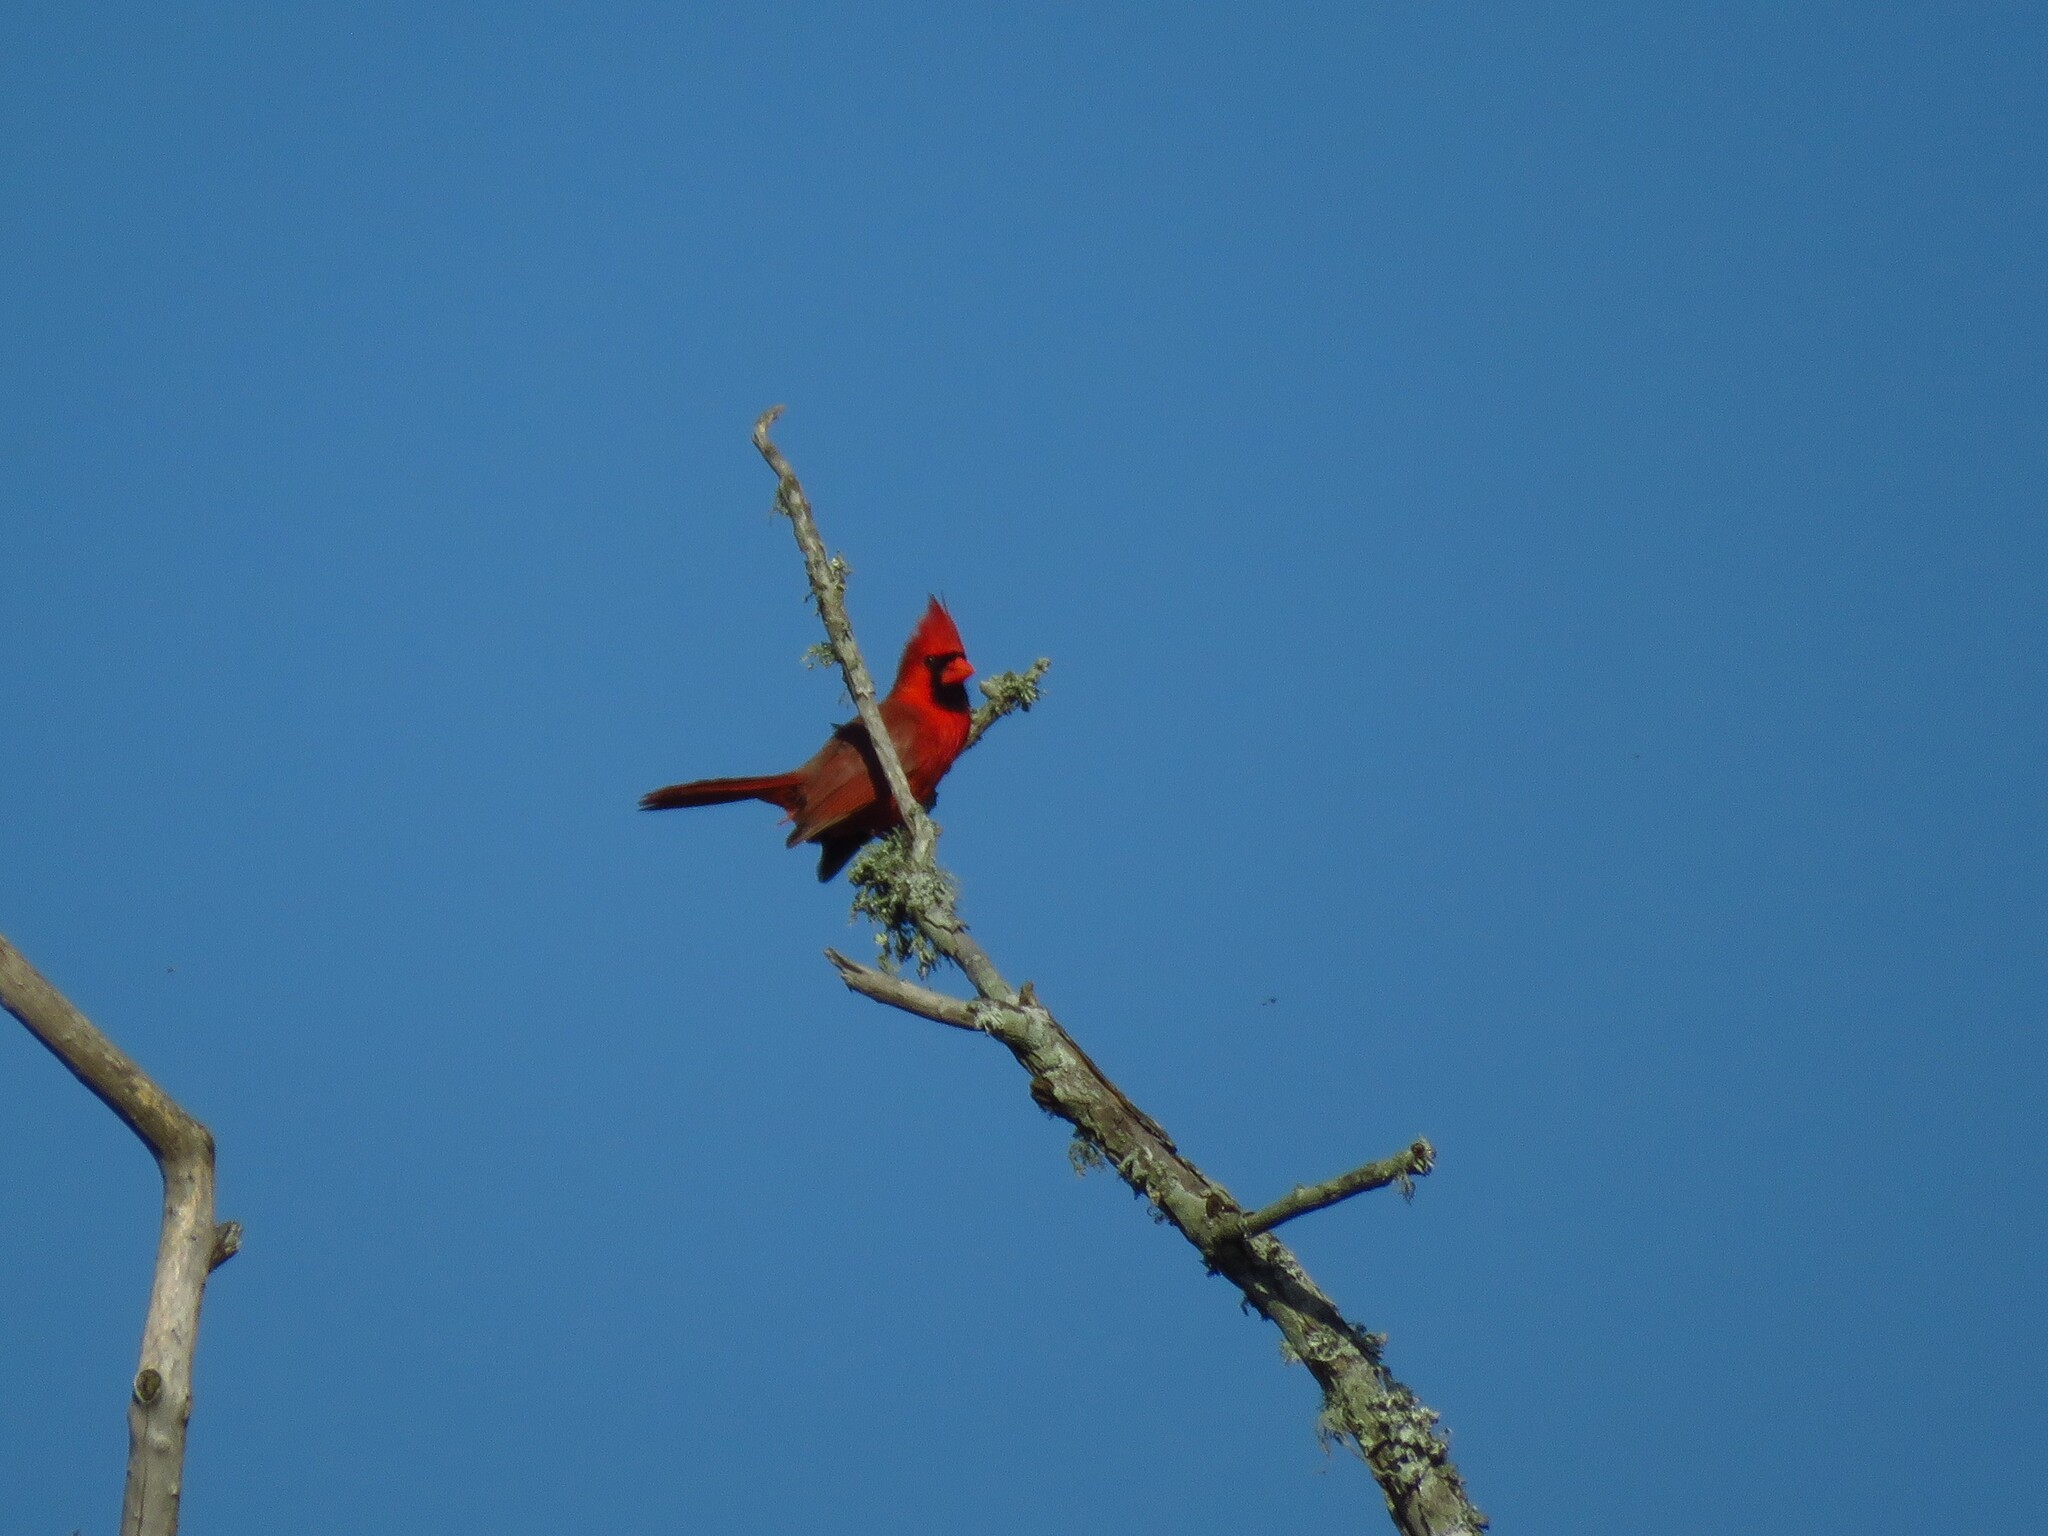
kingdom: Animalia
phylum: Chordata
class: Aves
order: Passeriformes
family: Cardinalidae
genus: Cardinalis
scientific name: Cardinalis cardinalis
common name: Northern cardinal
